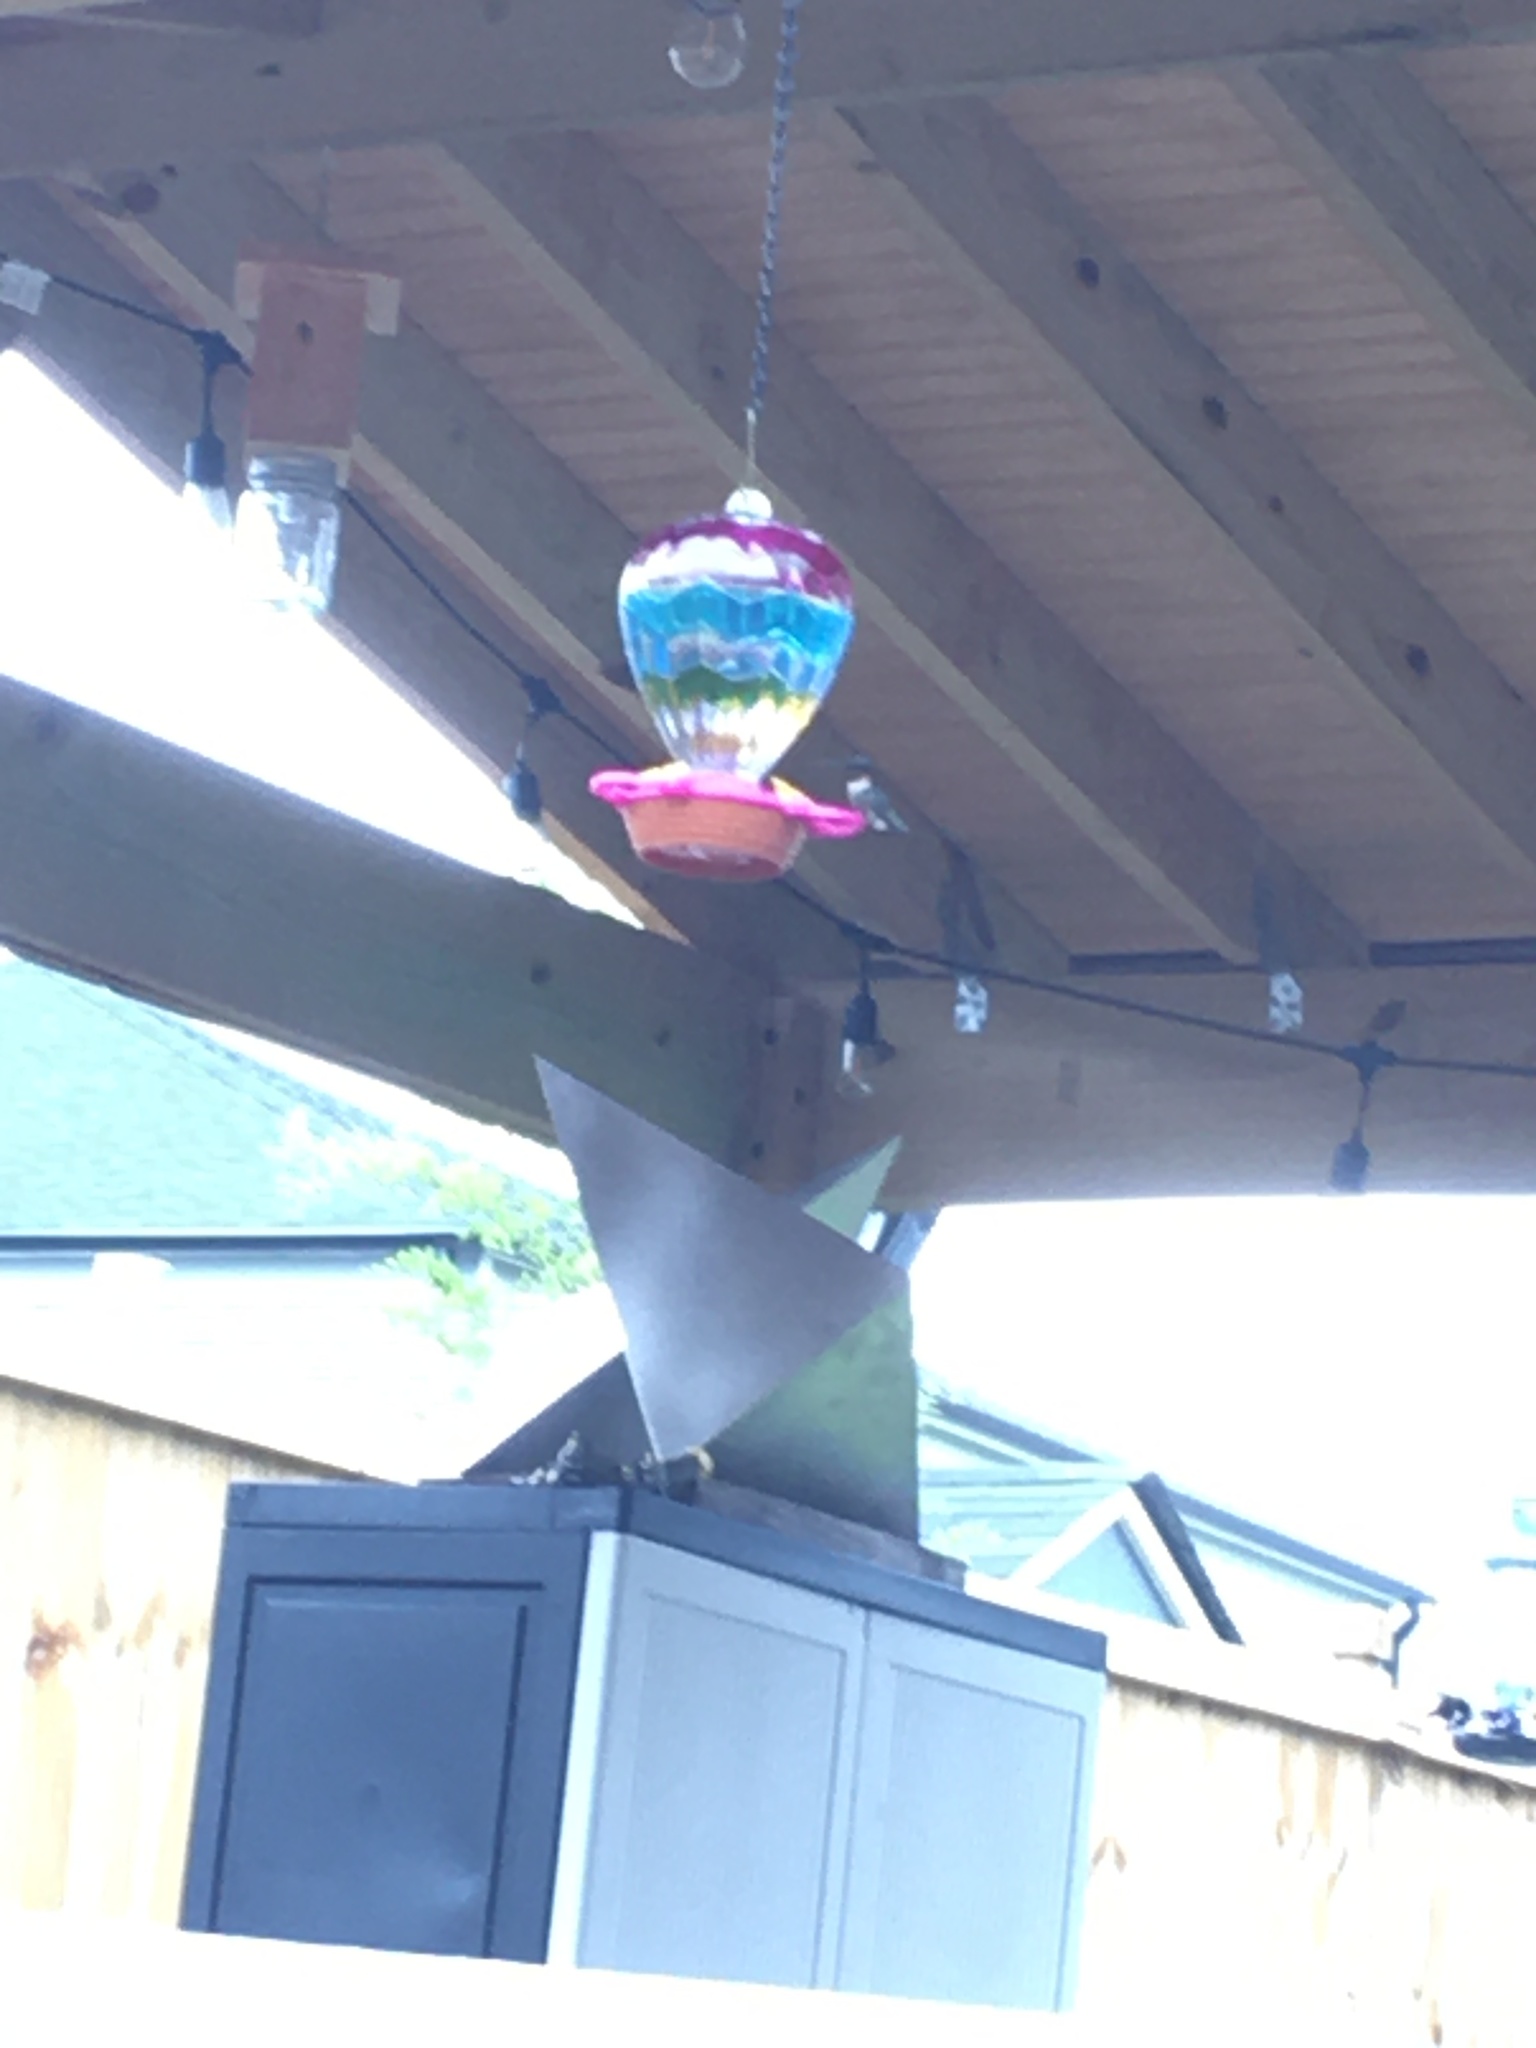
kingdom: Animalia
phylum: Chordata
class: Aves
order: Apodiformes
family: Trochilidae
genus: Archilochus
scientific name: Archilochus colubris
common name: Ruby-throated hummingbird
